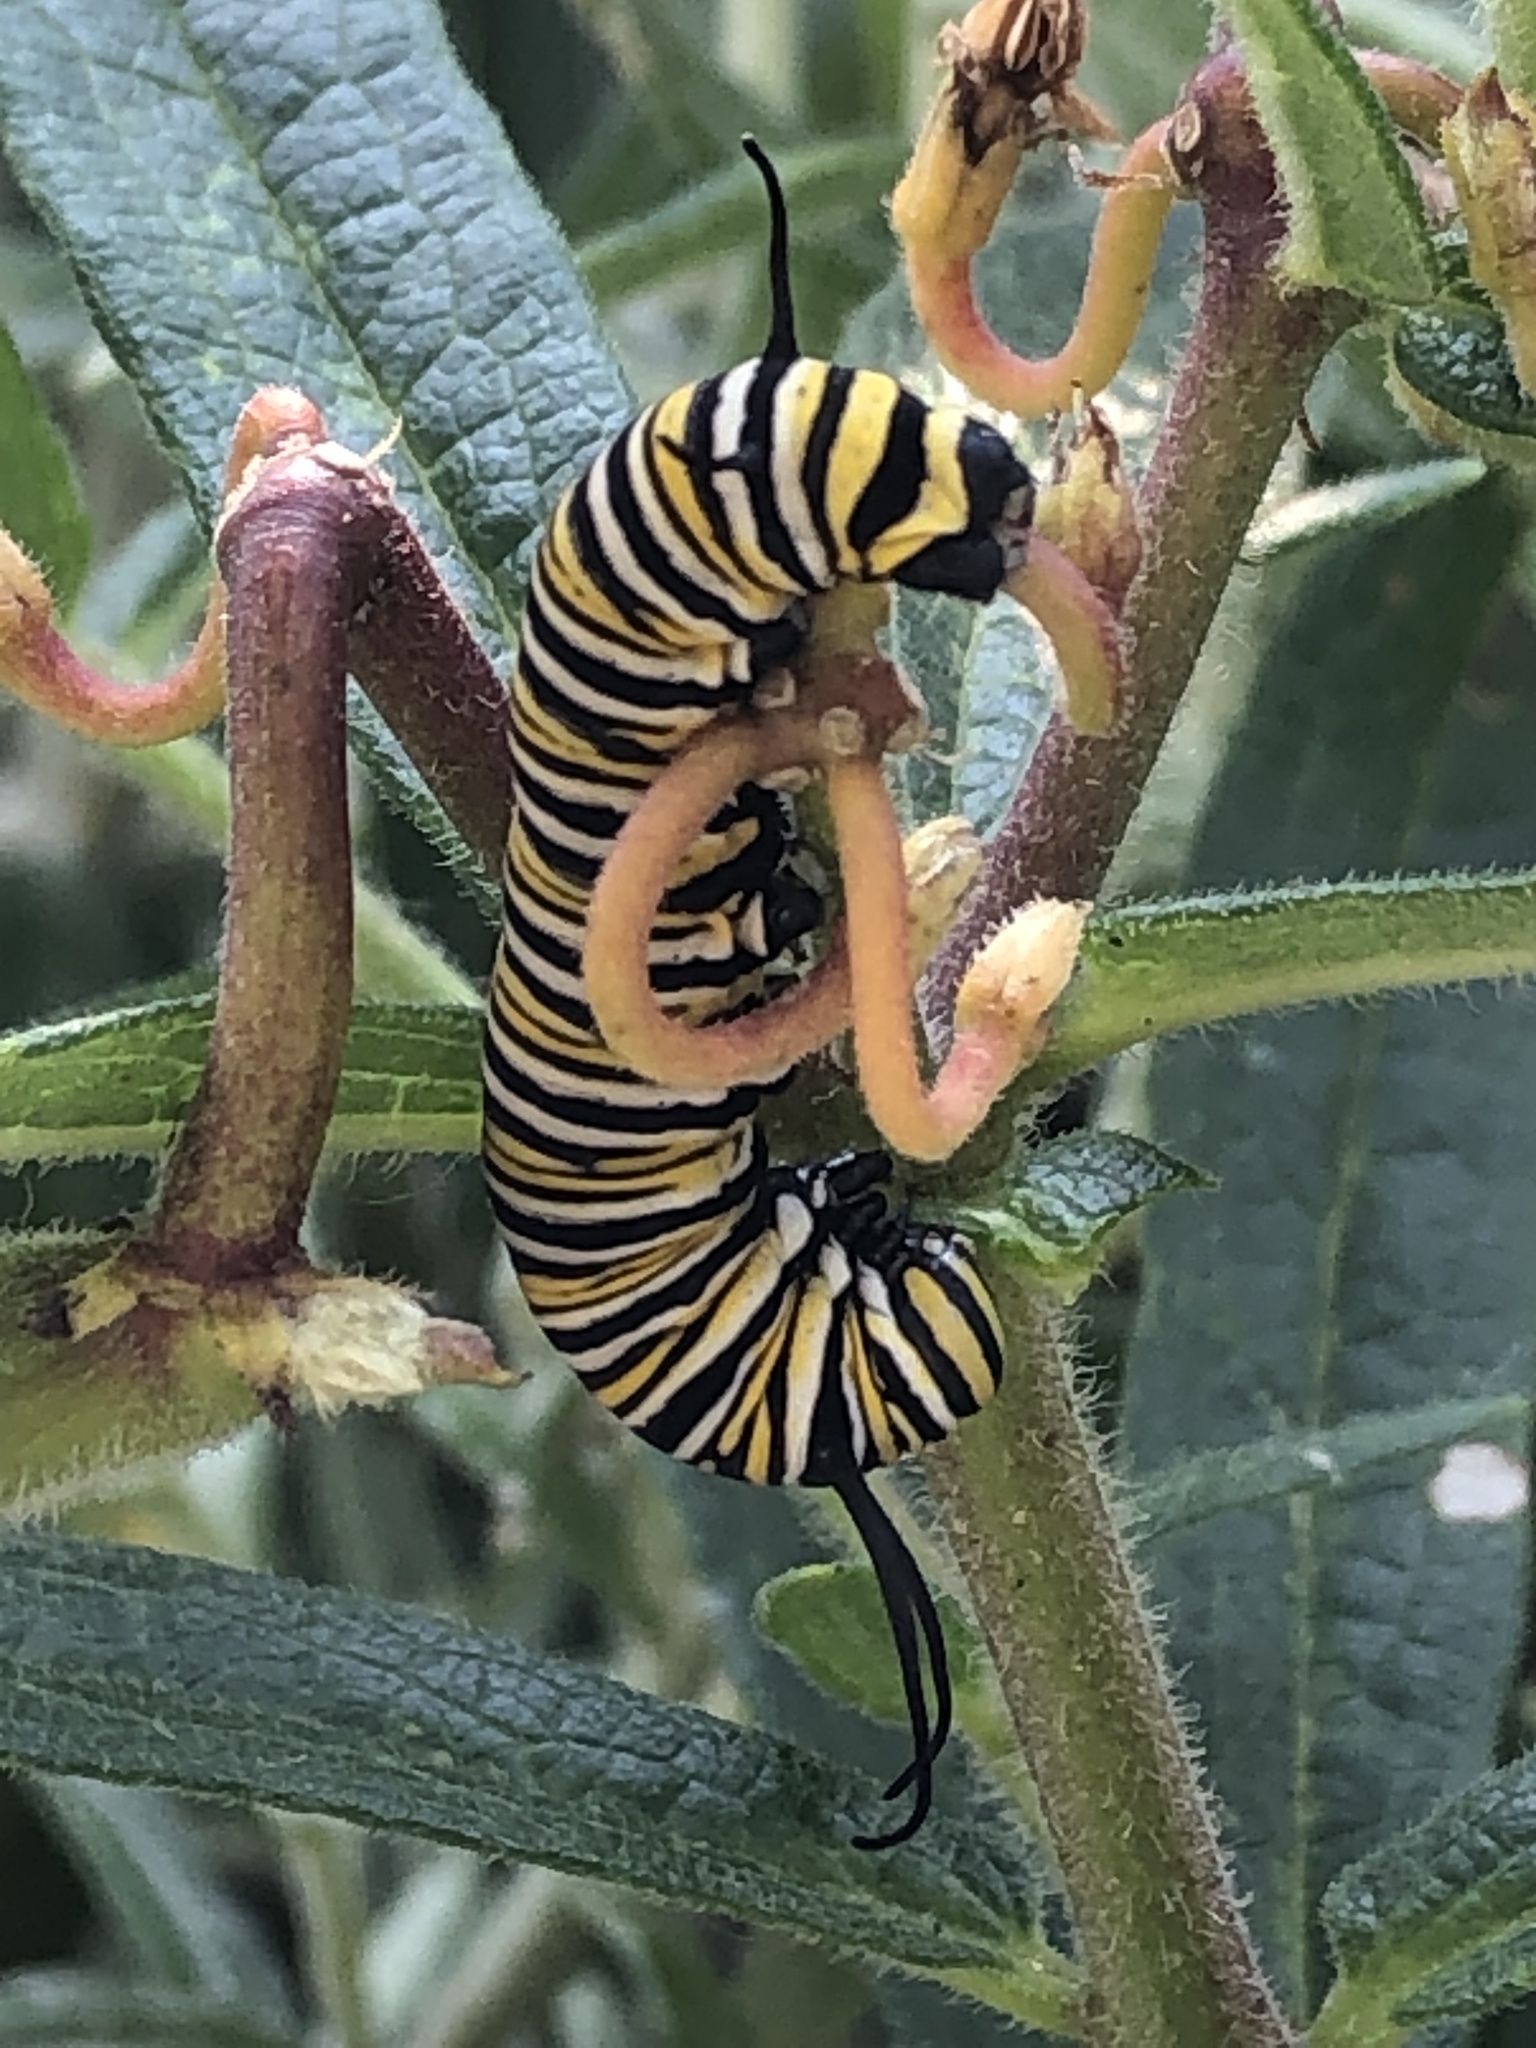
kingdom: Animalia
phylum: Arthropoda
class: Insecta
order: Lepidoptera
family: Nymphalidae
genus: Danaus
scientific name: Danaus plexippus
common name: Monarch
